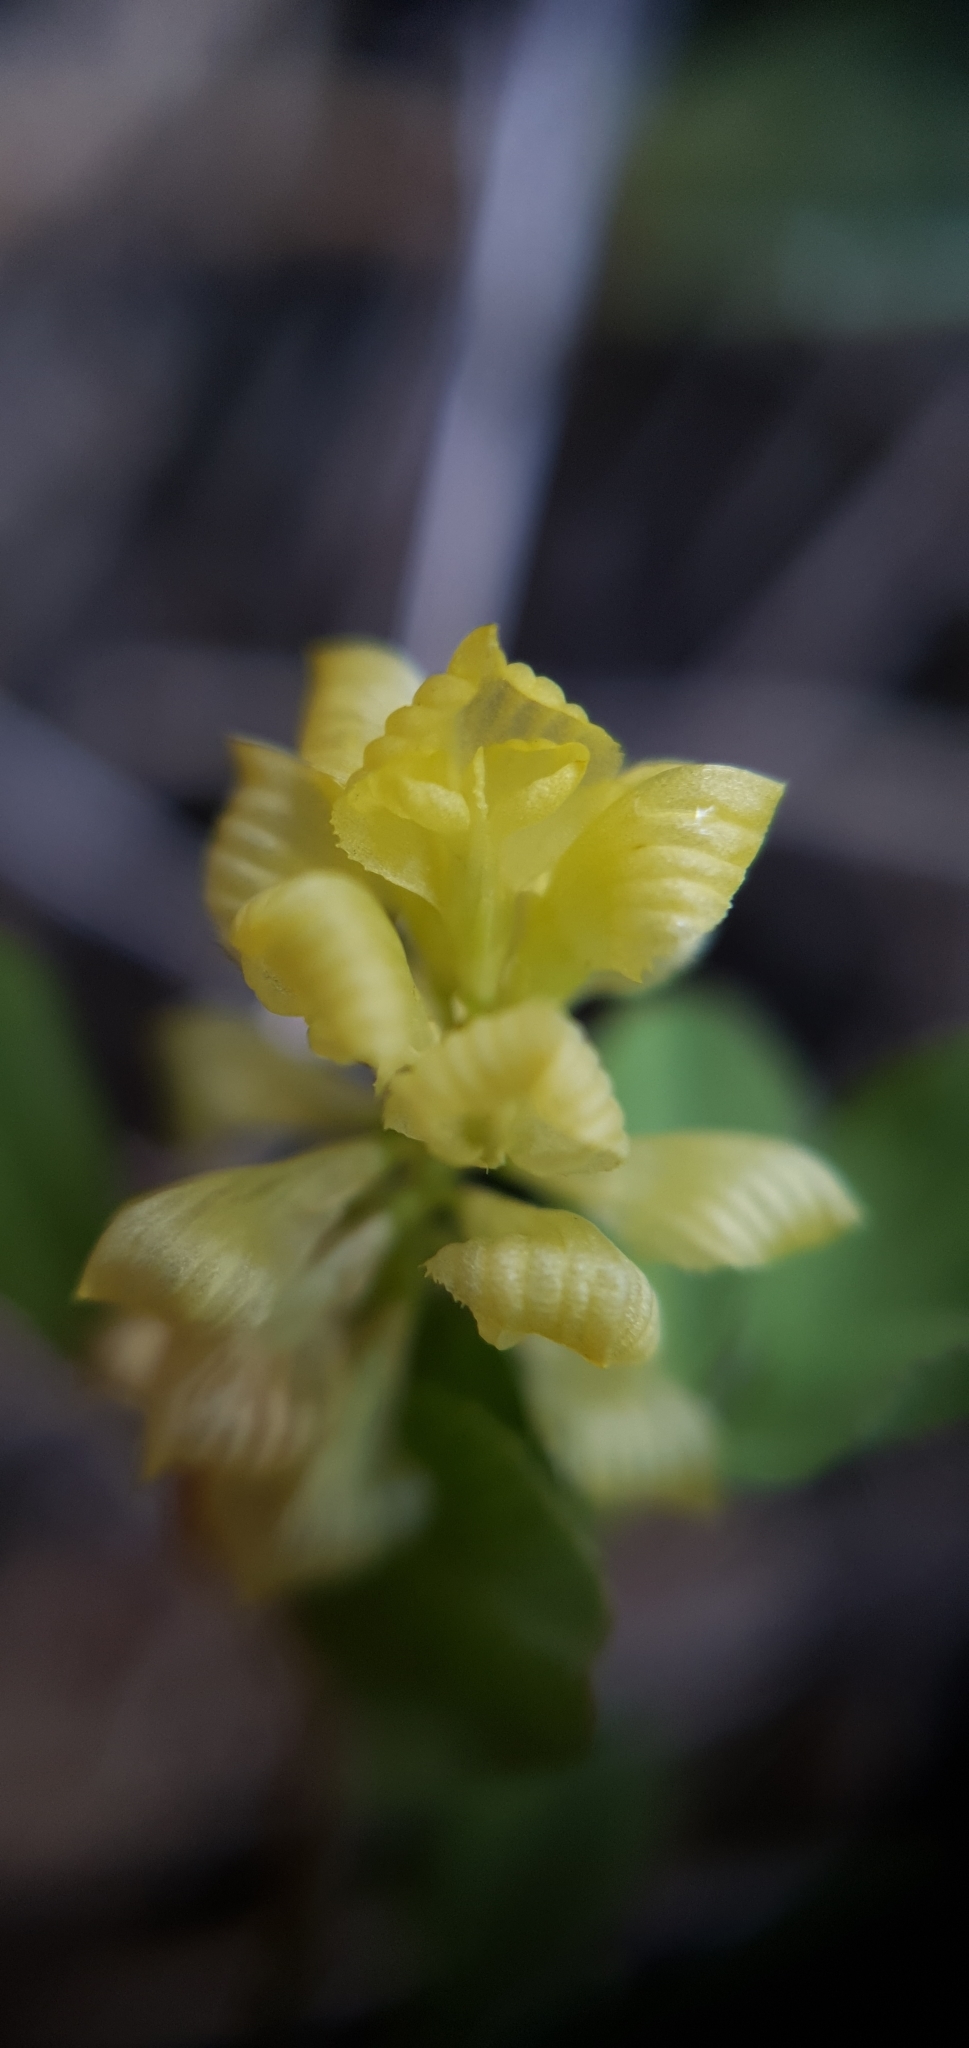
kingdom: Plantae
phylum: Tracheophyta
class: Magnoliopsida
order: Fabales
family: Fabaceae
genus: Trifolium
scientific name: Trifolium campestre
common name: Field clover
